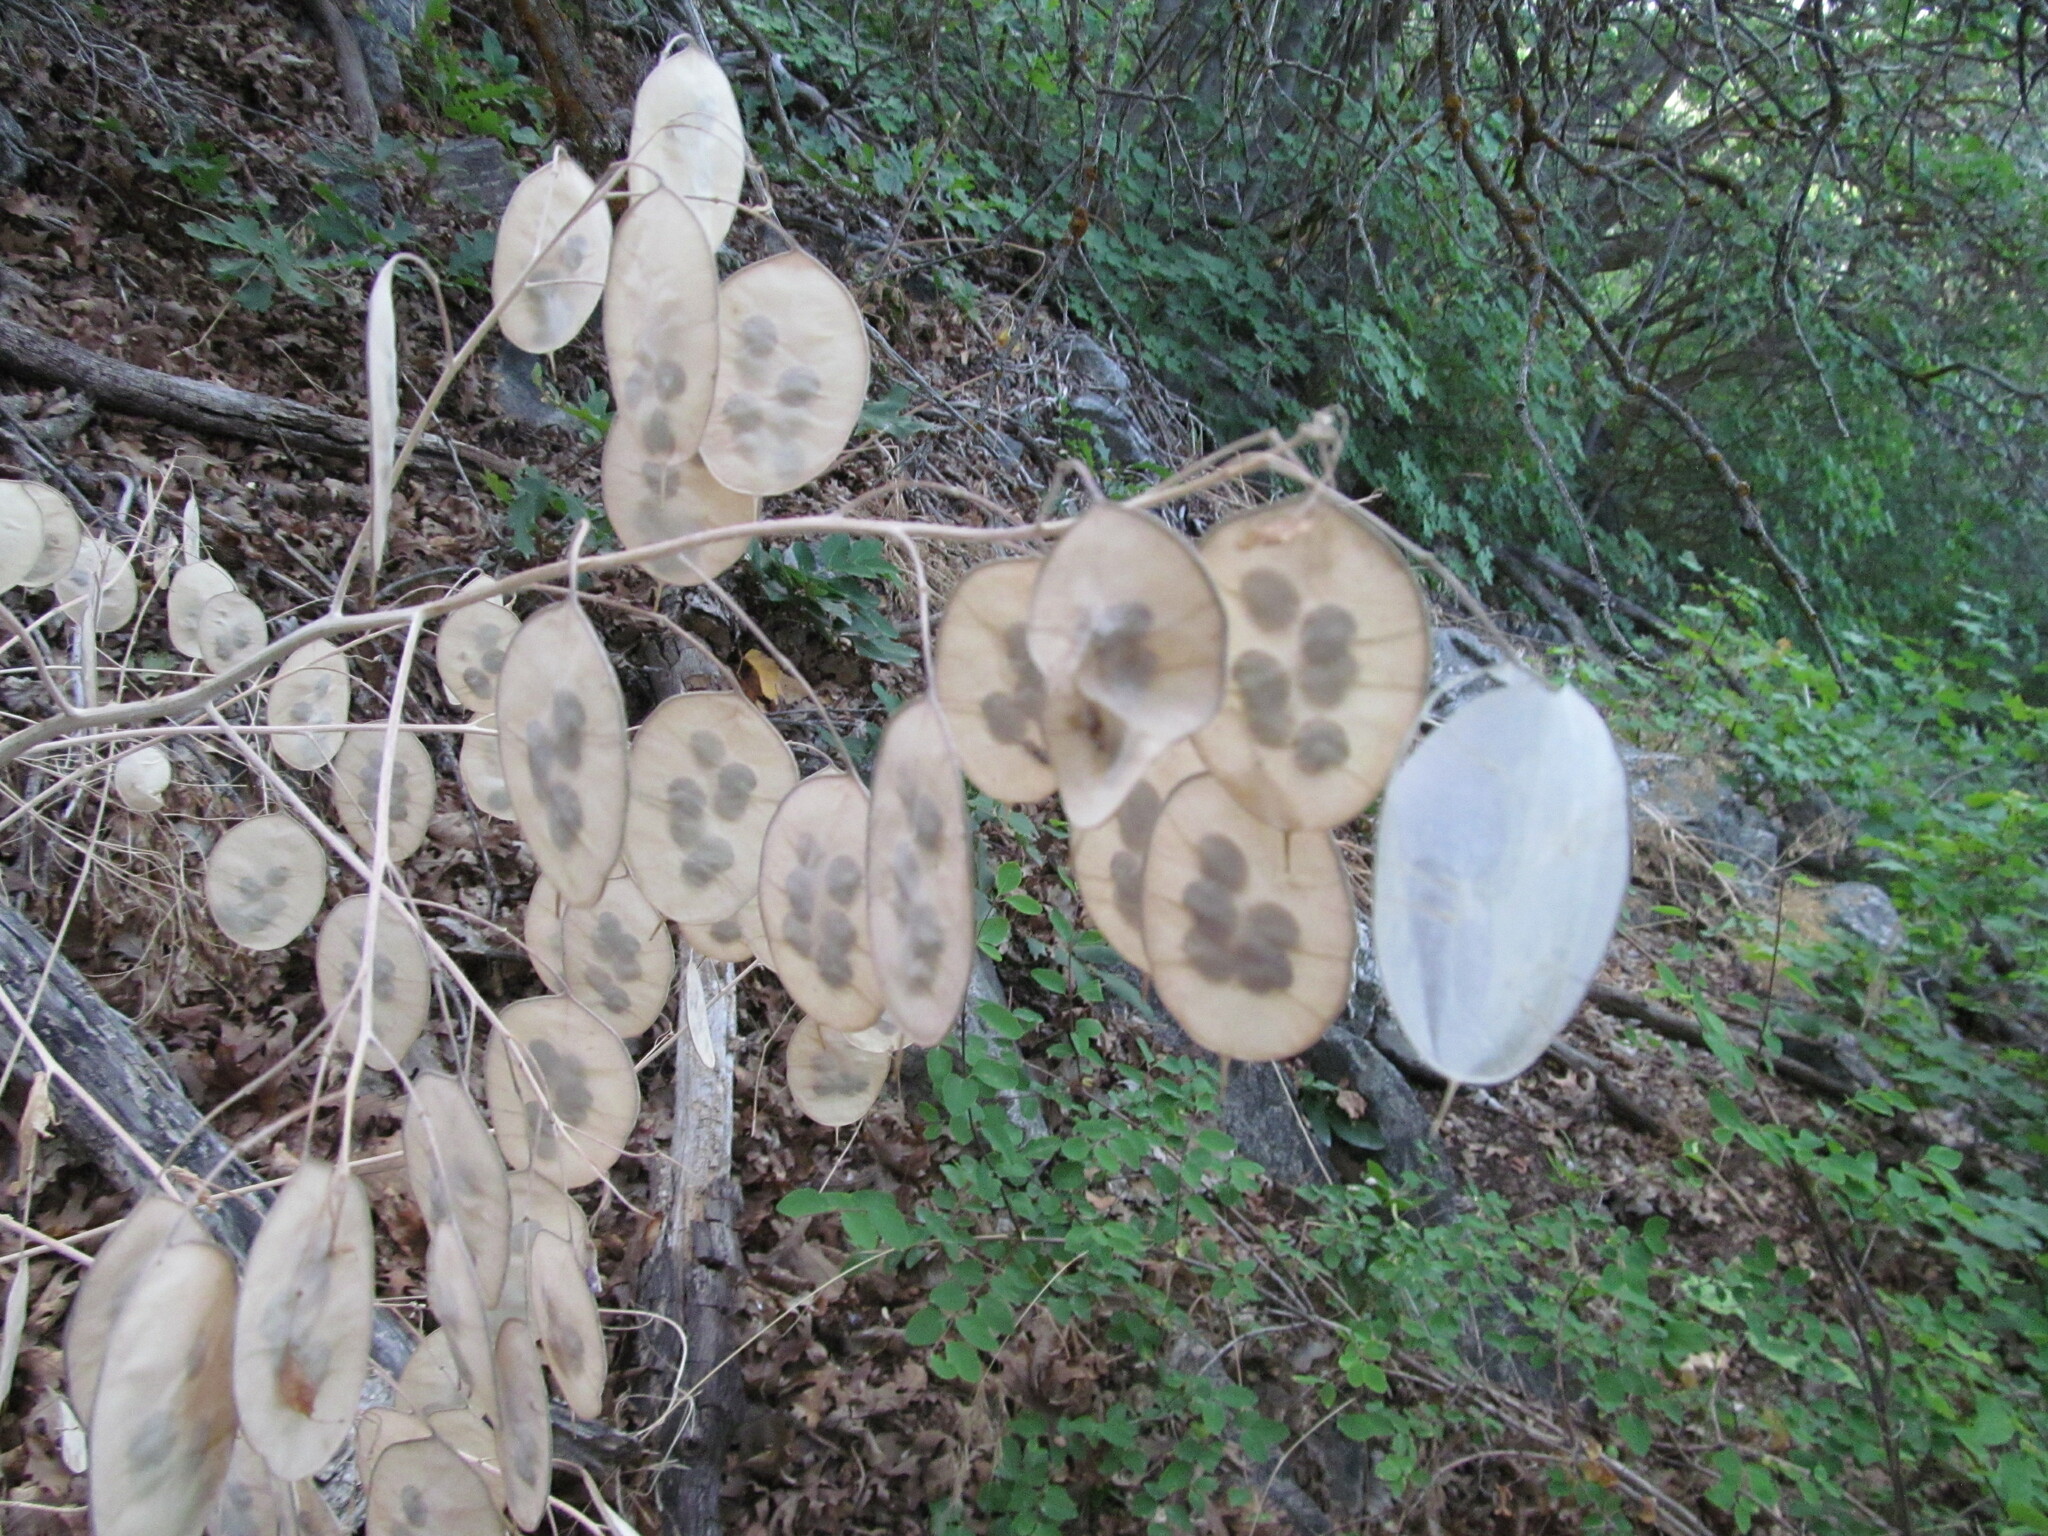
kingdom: Plantae
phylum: Tracheophyta
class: Magnoliopsida
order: Brassicales
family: Brassicaceae
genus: Lunaria
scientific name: Lunaria annua
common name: Honesty
